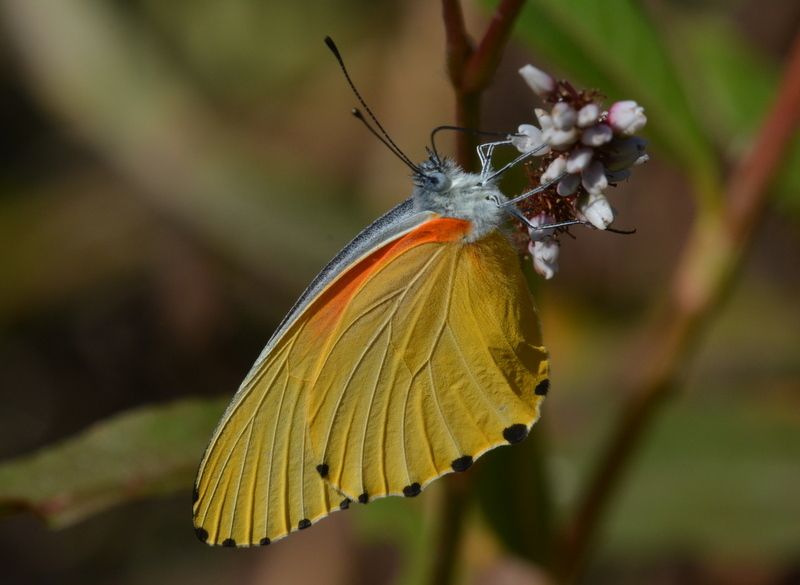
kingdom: Animalia
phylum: Arthropoda
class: Insecta
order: Lepidoptera
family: Pieridae
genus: Mylothris
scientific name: Mylothris agathina
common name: Eastern dotted border
